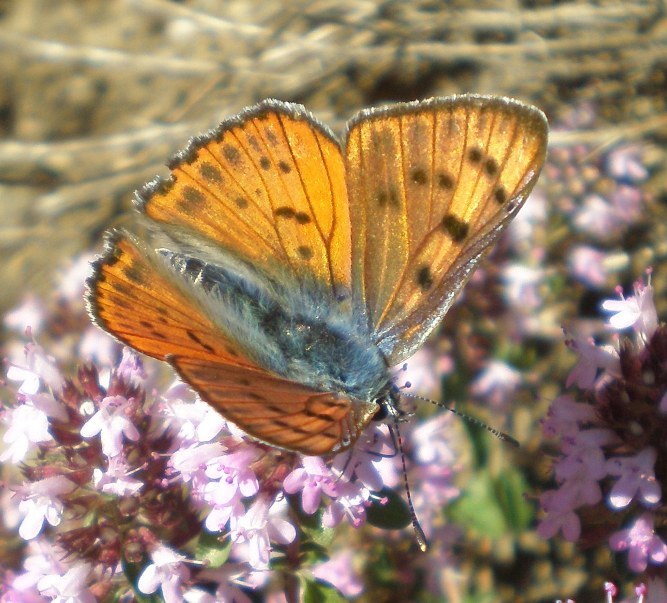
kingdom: Animalia
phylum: Arthropoda
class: Insecta
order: Lepidoptera
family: Lycaenidae
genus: Lycaena
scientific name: Lycaena alciphron
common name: Purple-shot copper
